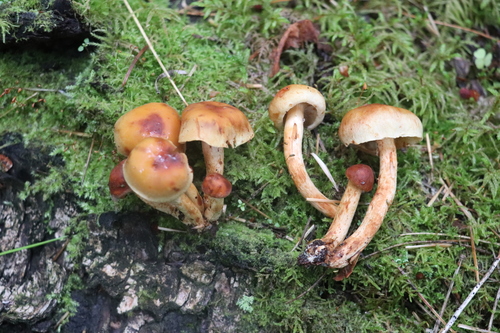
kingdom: Fungi
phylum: Basidiomycota
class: Agaricomycetes
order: Agaricales
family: Strophariaceae
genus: Hypholoma
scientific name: Hypholoma lateritium
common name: Brick caps
